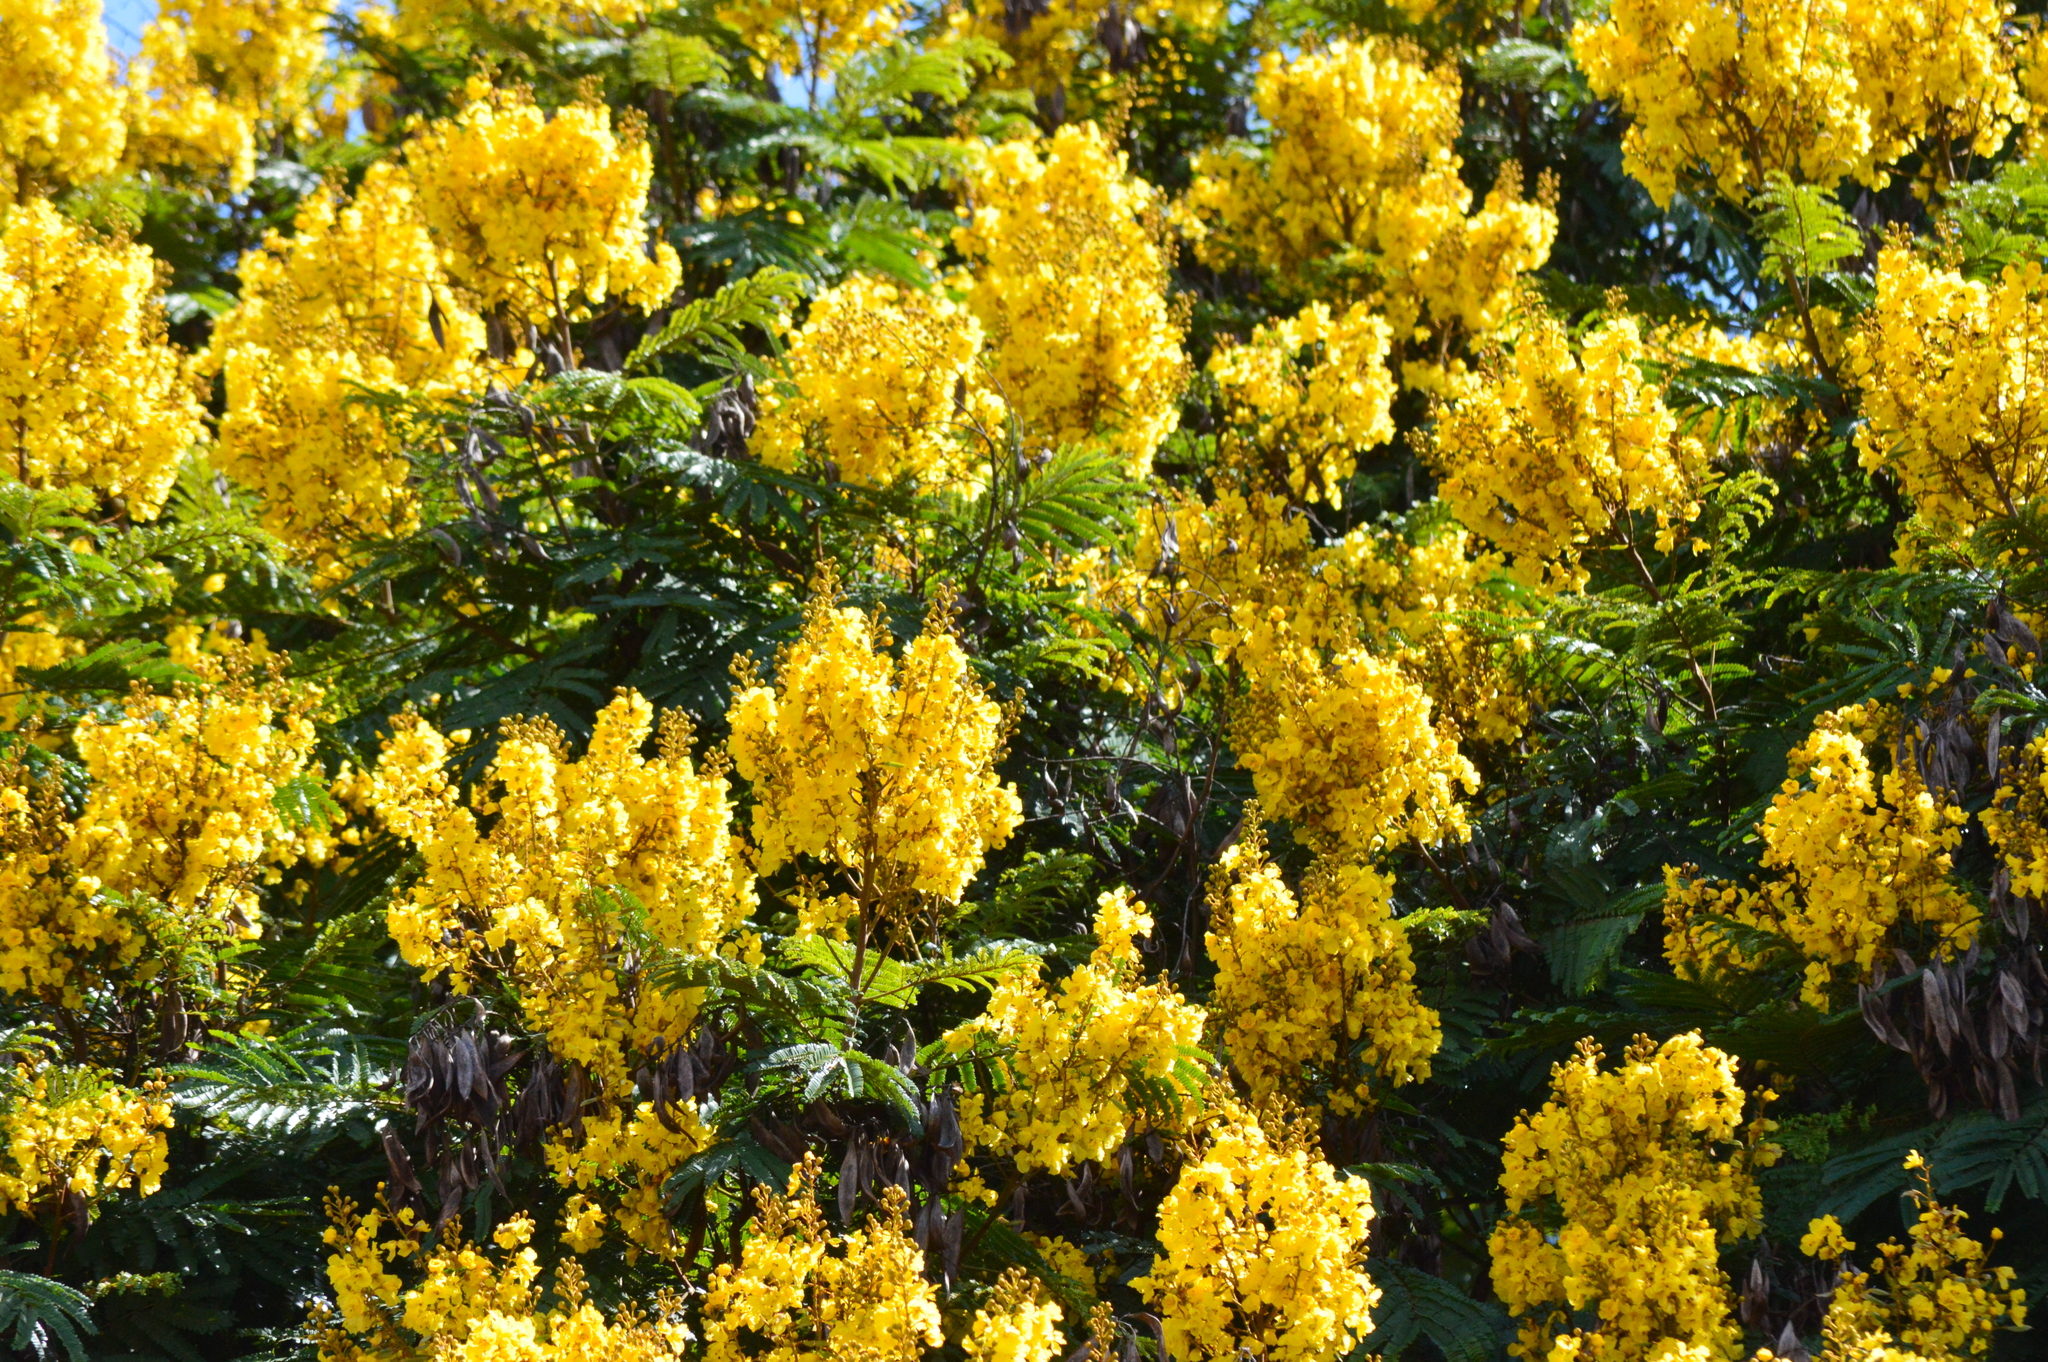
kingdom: Plantae
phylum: Tracheophyta
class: Magnoliopsida
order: Fabales
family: Fabaceae
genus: Peltophorum
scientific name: Peltophorum dubium
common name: Horsebush
